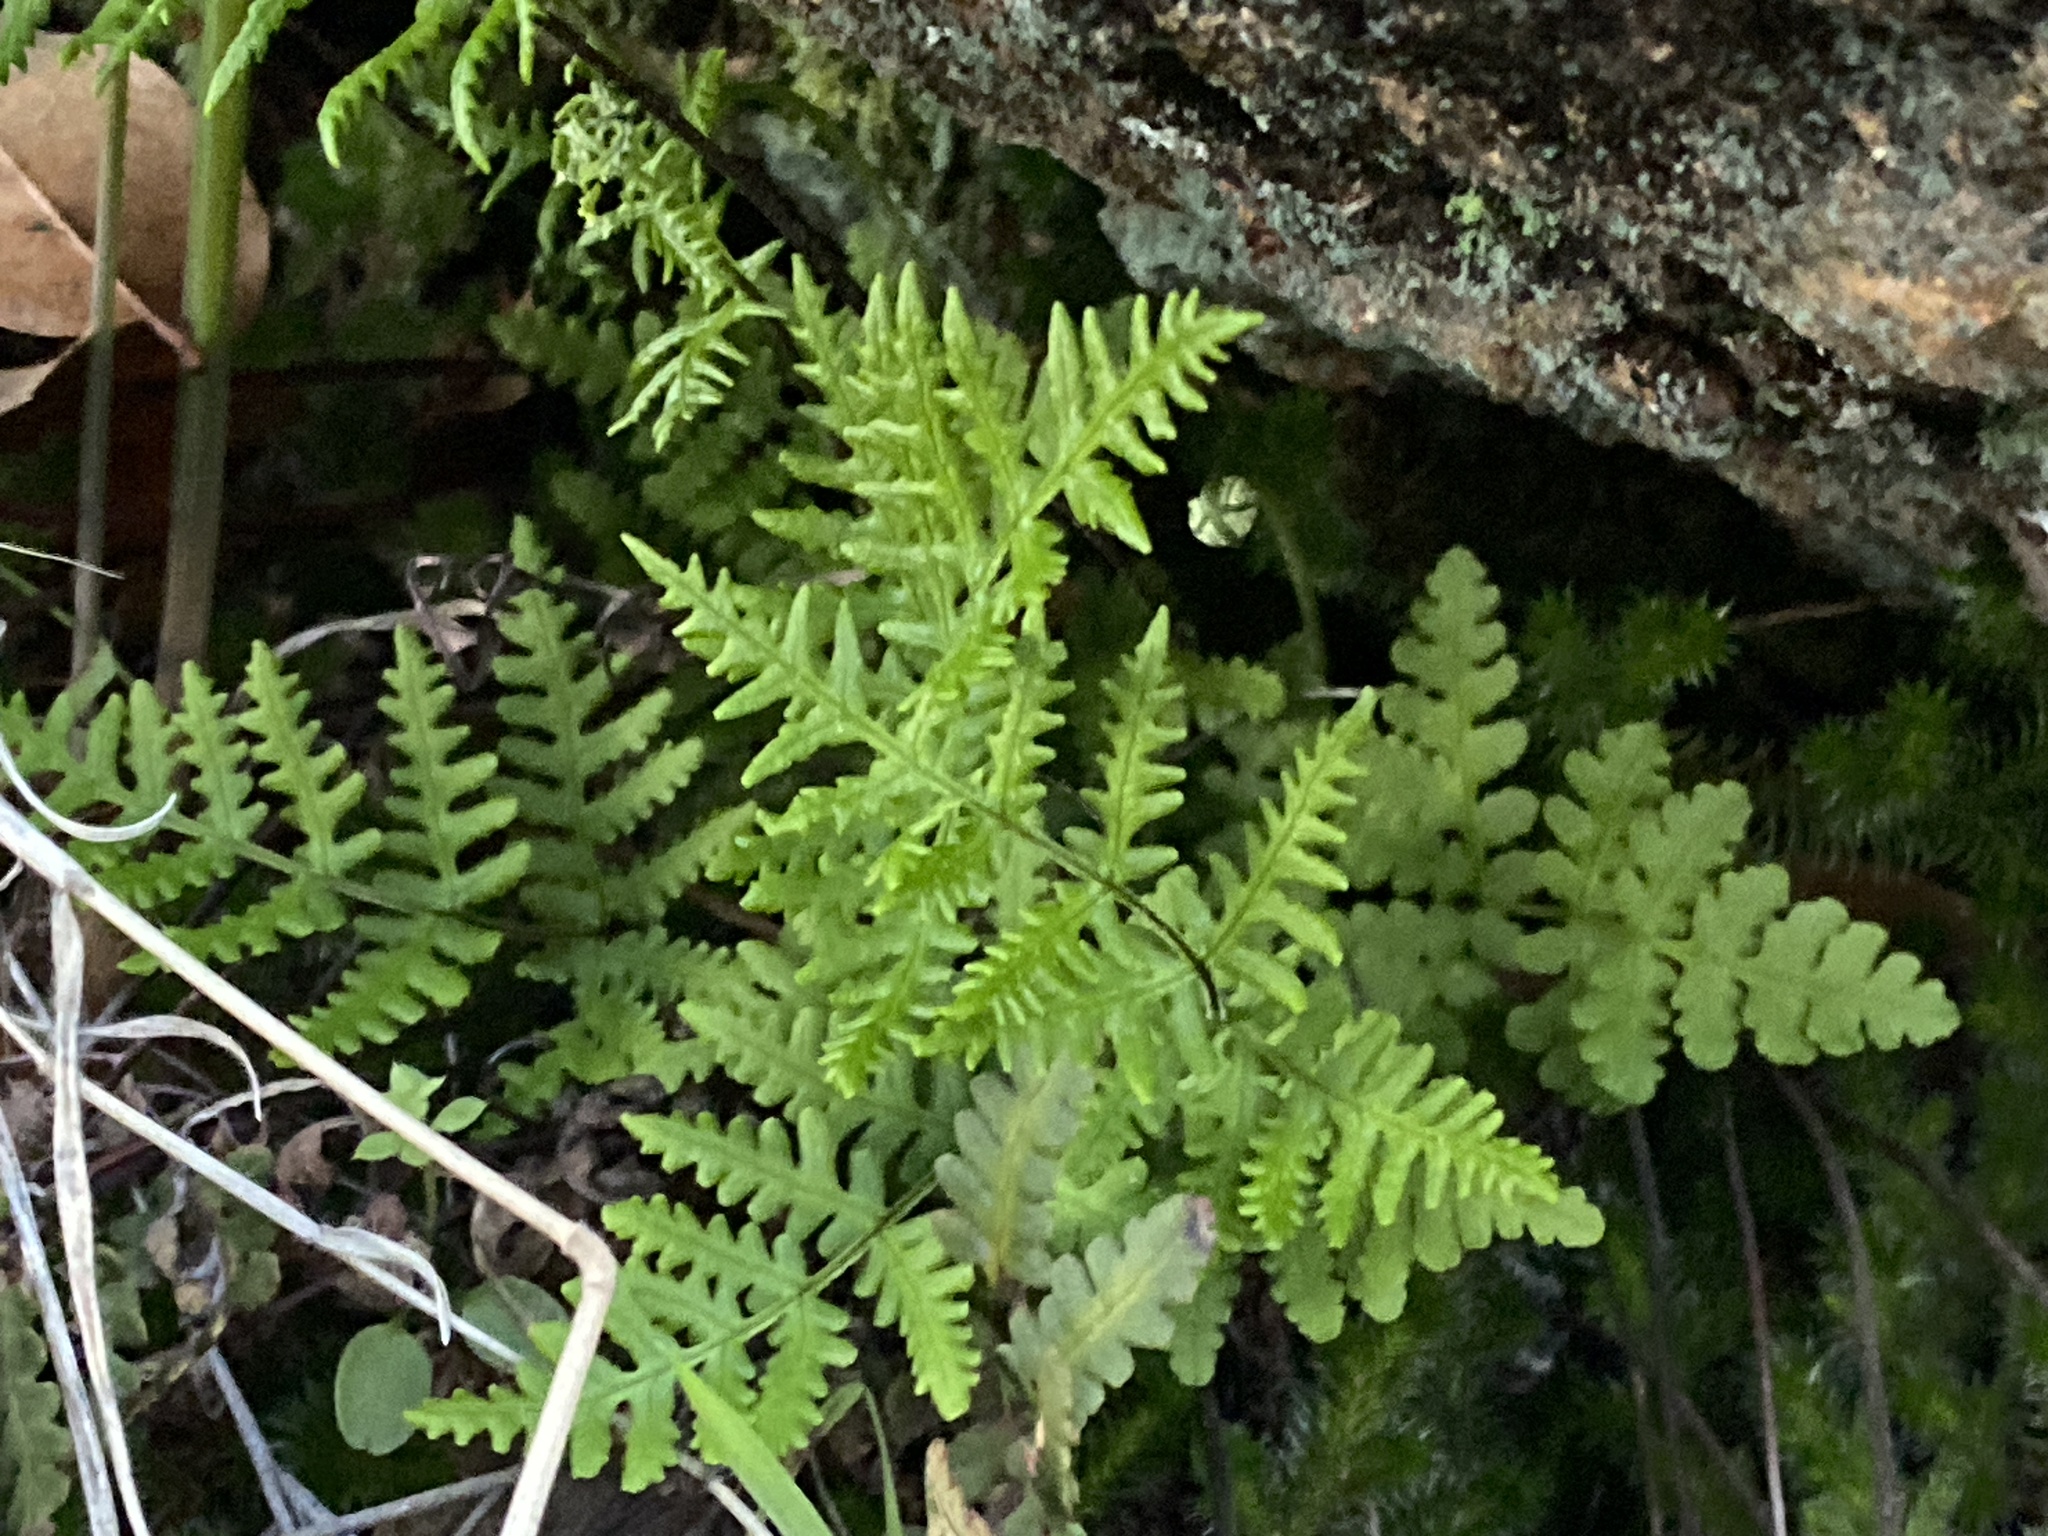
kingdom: Plantae
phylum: Tracheophyta
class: Polypodiopsida
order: Polypodiales
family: Pteridaceae
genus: Pentagramma
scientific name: Pentagramma triangularis
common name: Gold fern
